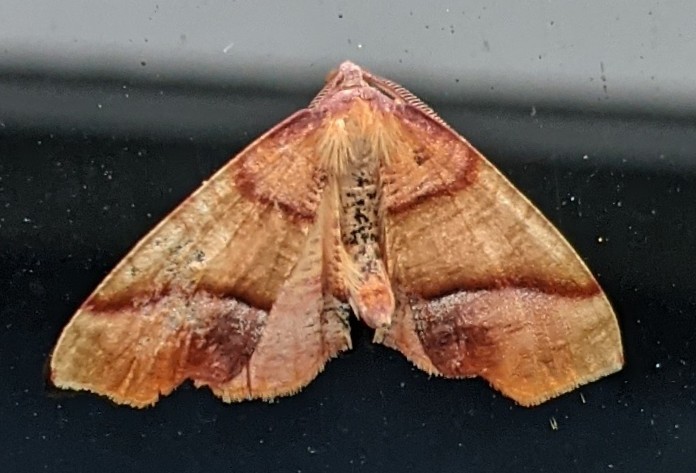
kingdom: Animalia
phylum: Arthropoda
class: Insecta
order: Lepidoptera
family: Geometridae
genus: Plagodis
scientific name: Plagodis phlogosaria
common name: Straight-lined plagodis
